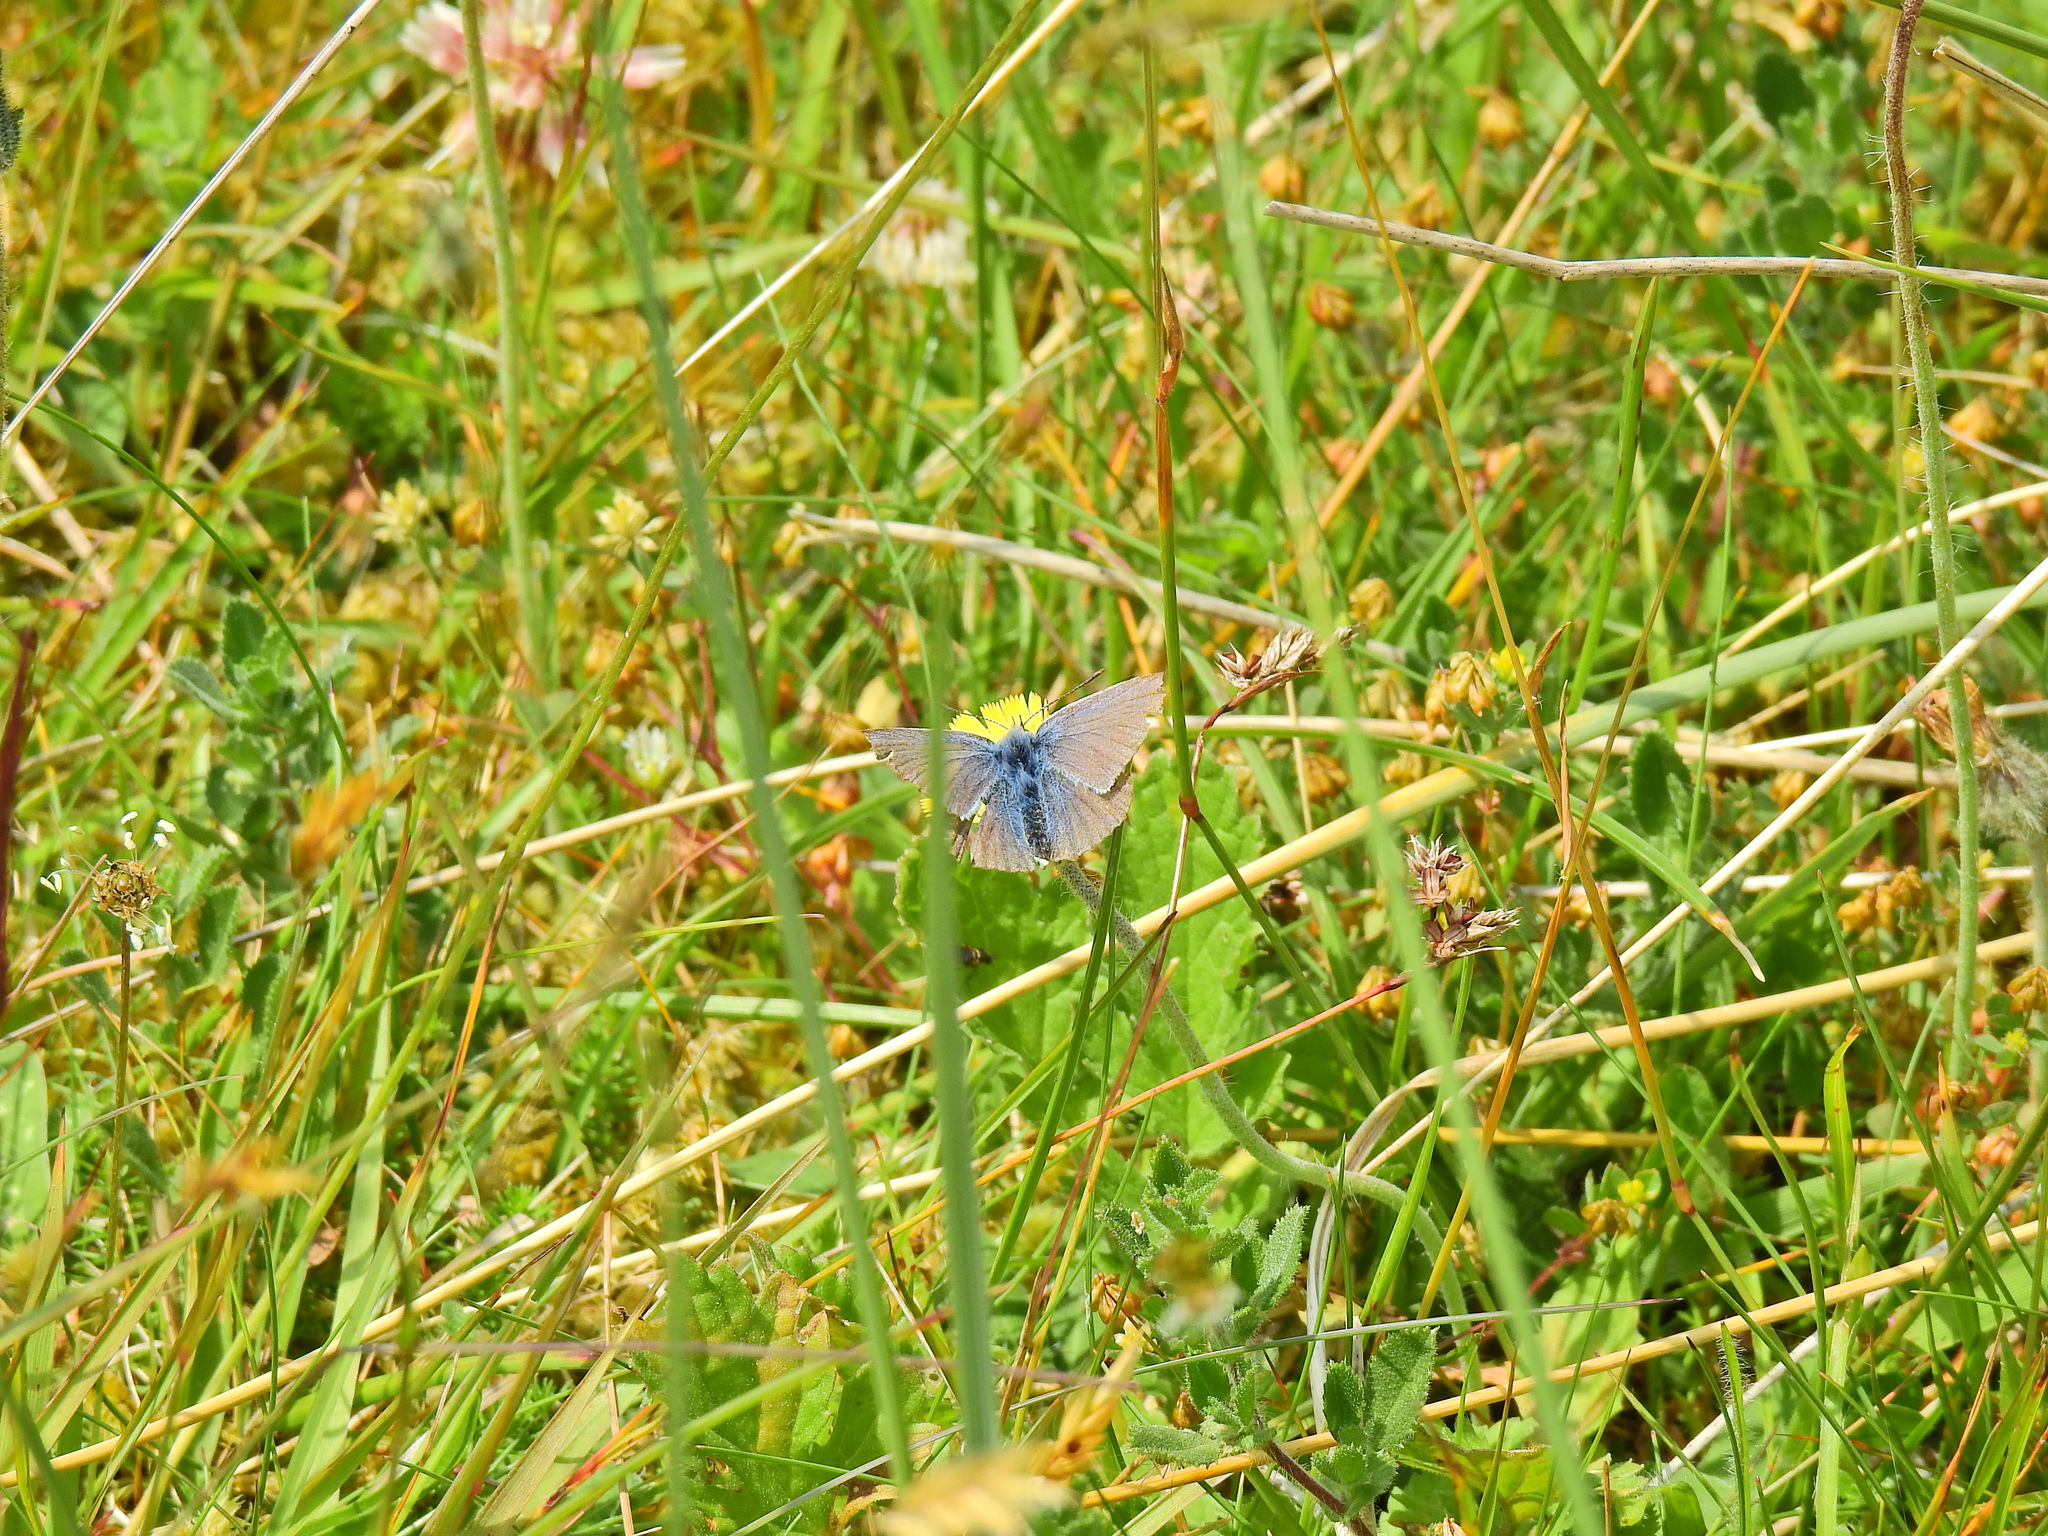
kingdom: Animalia
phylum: Arthropoda
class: Insecta
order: Lepidoptera
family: Lycaenidae
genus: Polyommatus
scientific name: Polyommatus icarus
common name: Common blue
